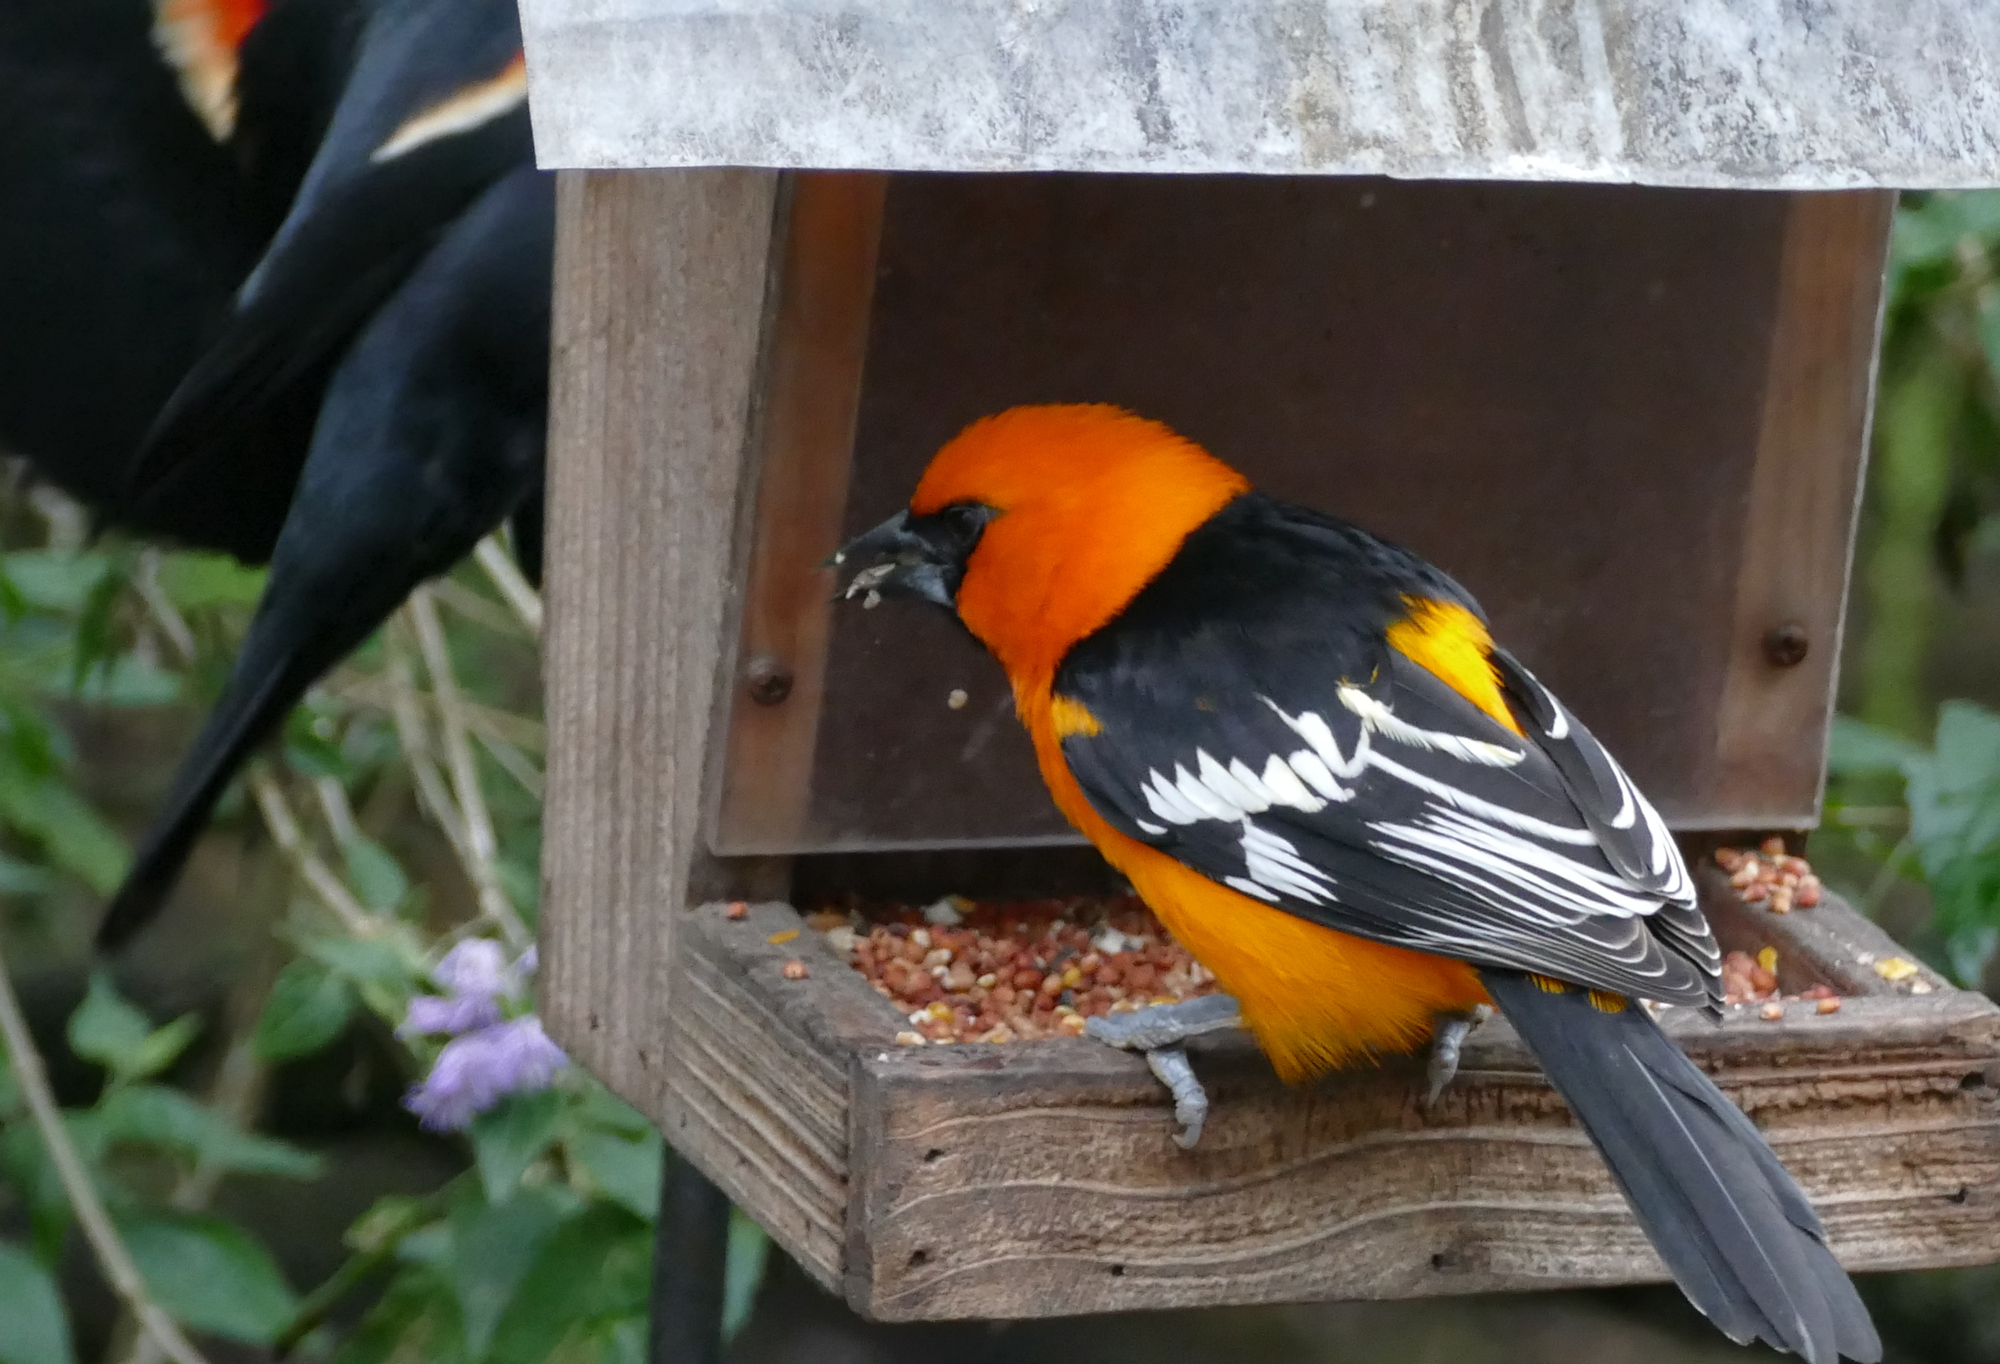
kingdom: Animalia
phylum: Chordata
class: Aves
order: Passeriformes
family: Icteridae
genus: Icterus
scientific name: Icterus gularis
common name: Altamira oriole
